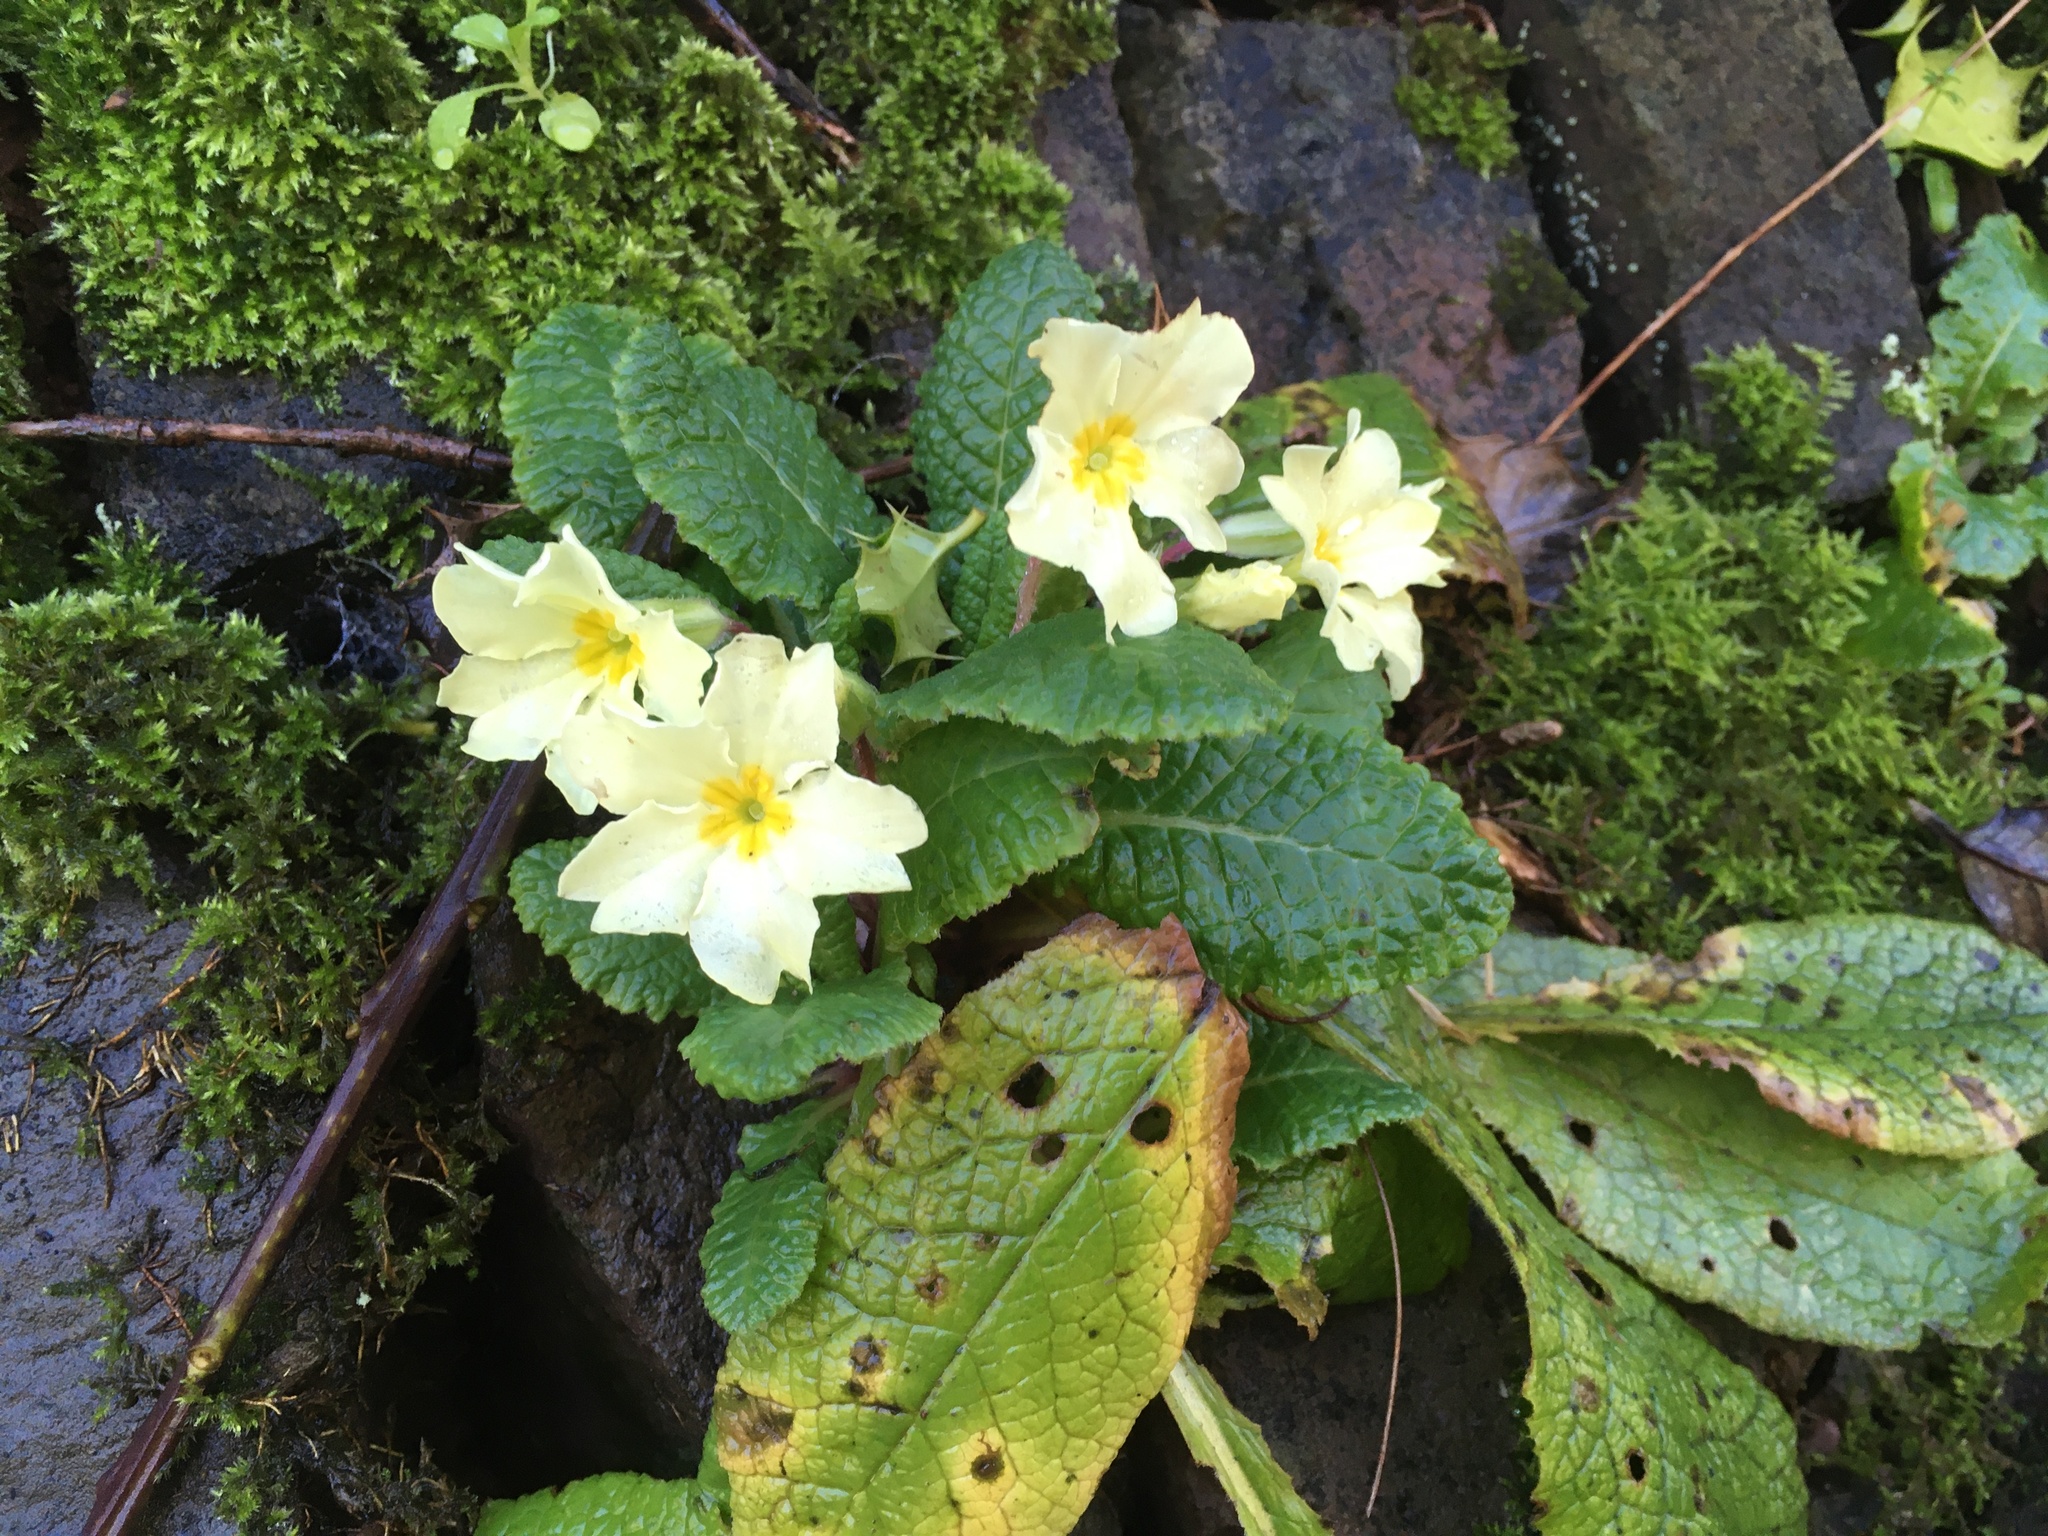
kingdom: Plantae
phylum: Tracheophyta
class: Magnoliopsida
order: Ericales
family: Primulaceae
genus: Primula
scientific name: Primula vulgaris
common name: Primrose
